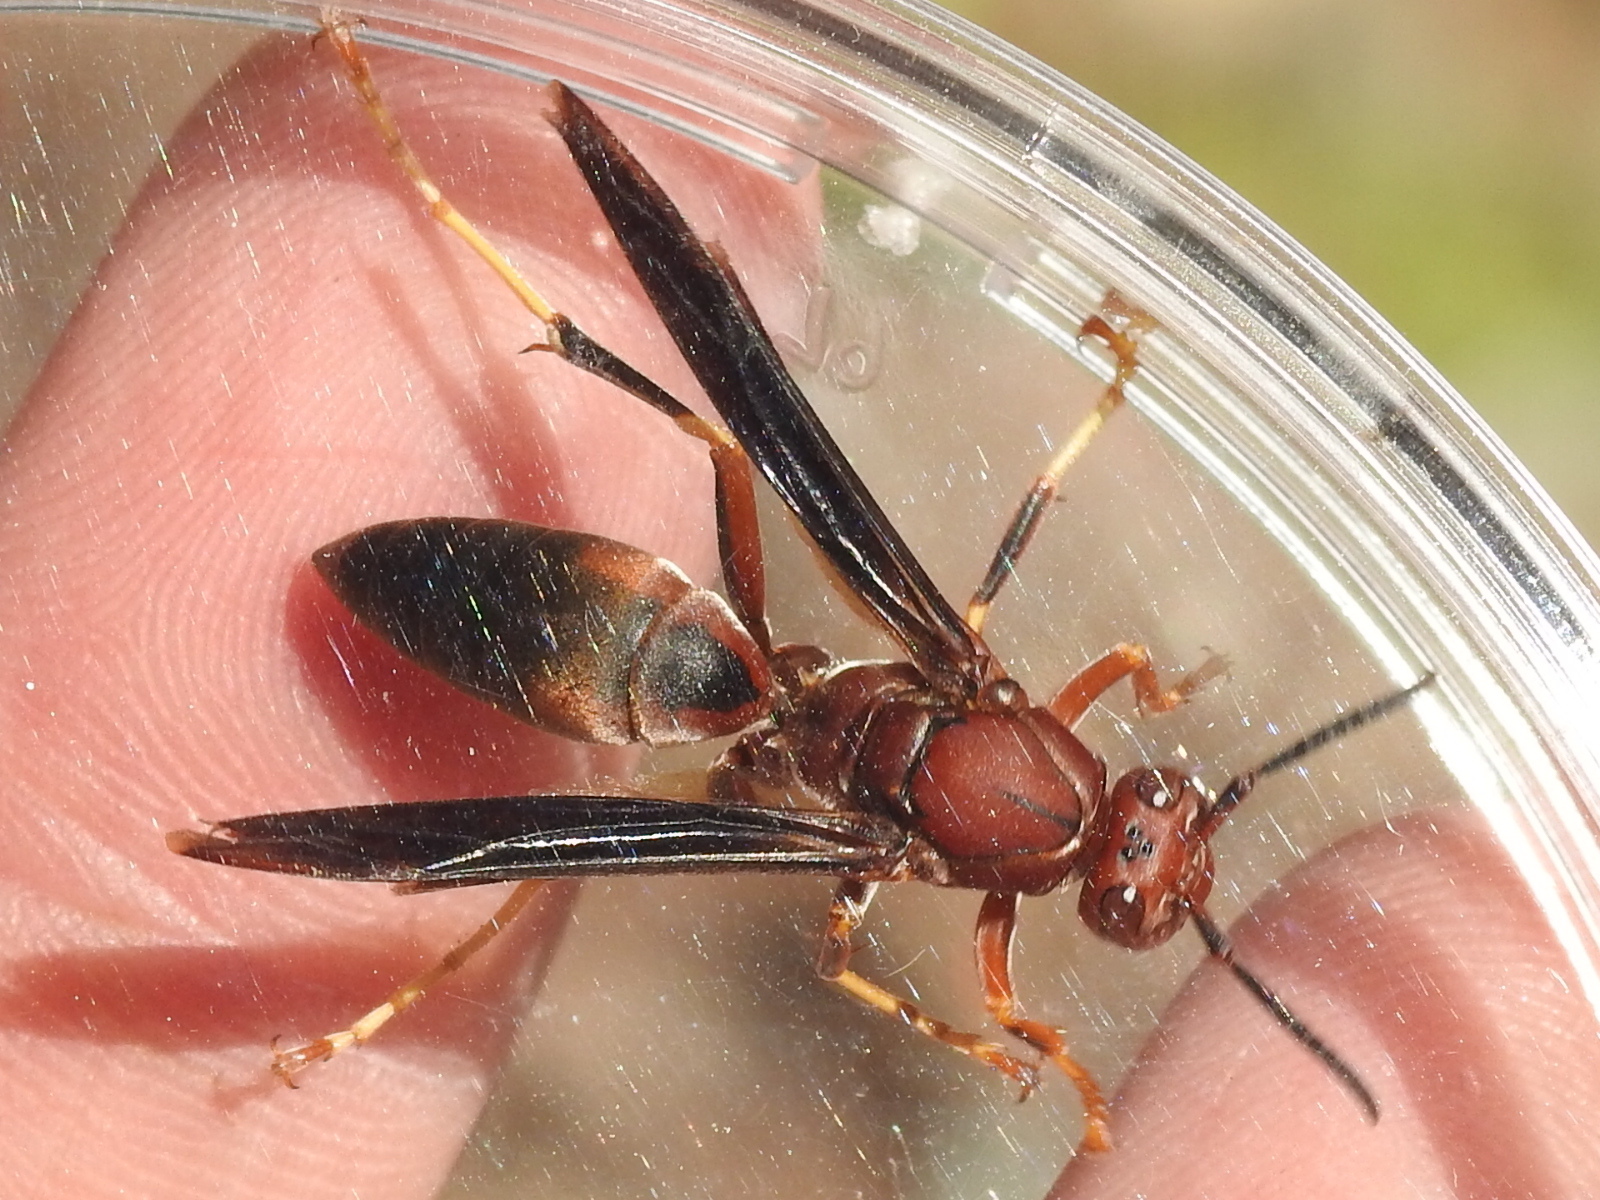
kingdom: Animalia
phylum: Arthropoda
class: Insecta
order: Hymenoptera
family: Eumenidae
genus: Polistes
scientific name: Polistes metricus
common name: Metric paper wasp
